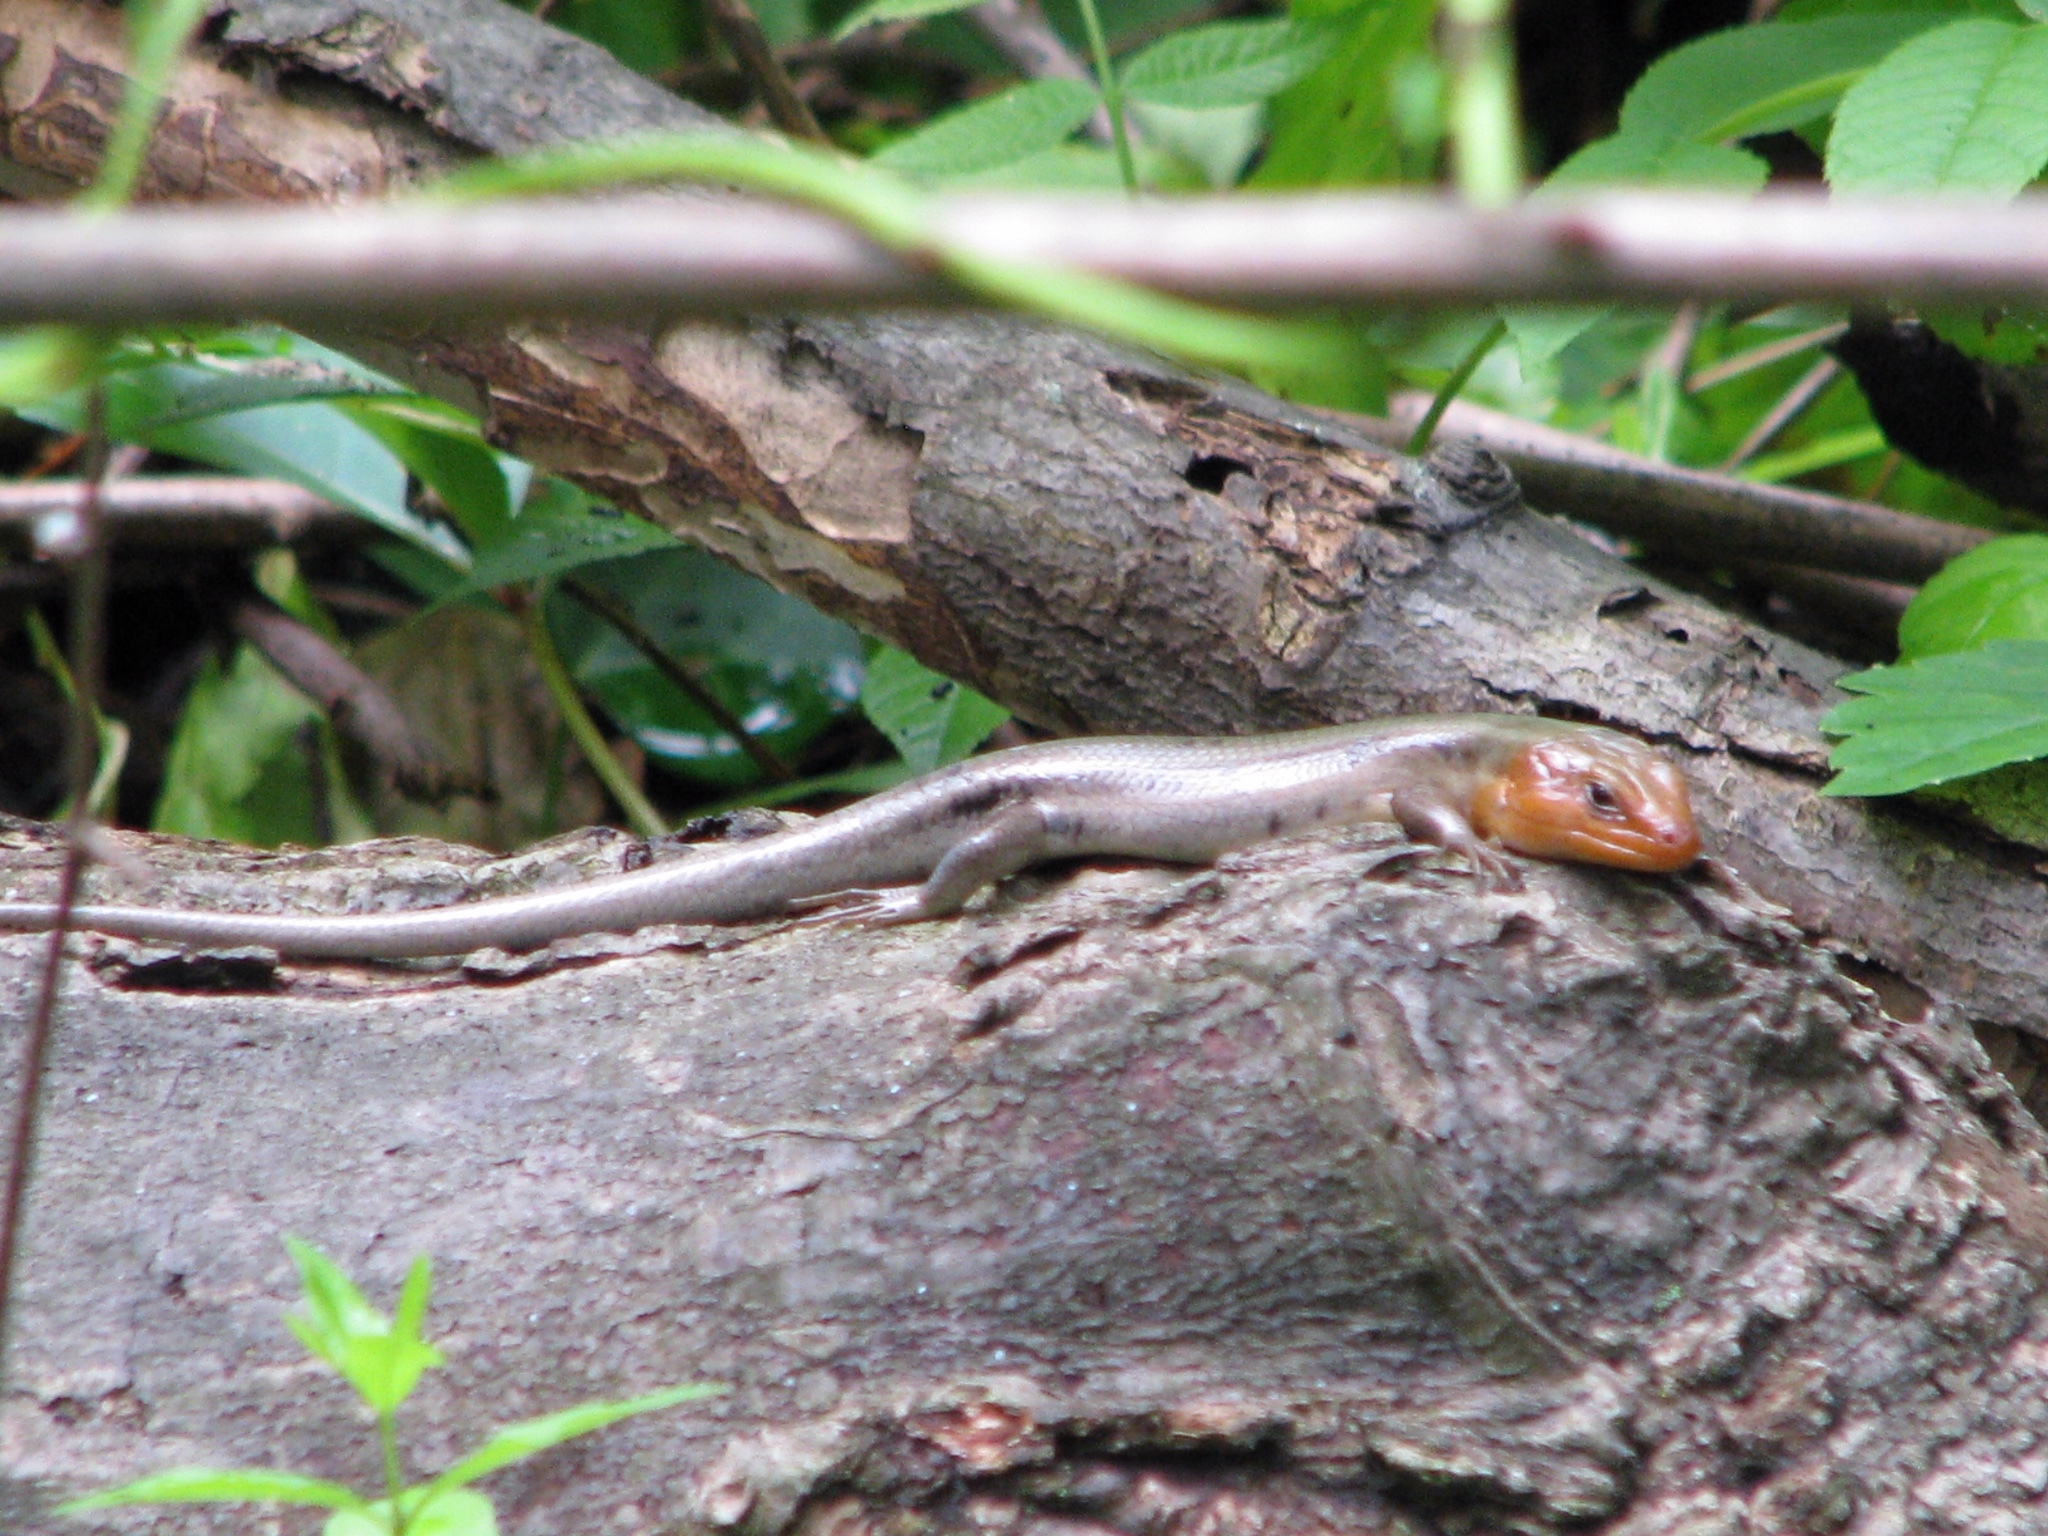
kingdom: Animalia
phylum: Chordata
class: Squamata
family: Scincidae
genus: Plestiodon
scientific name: Plestiodon fasciatus
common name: Five-lined skink
